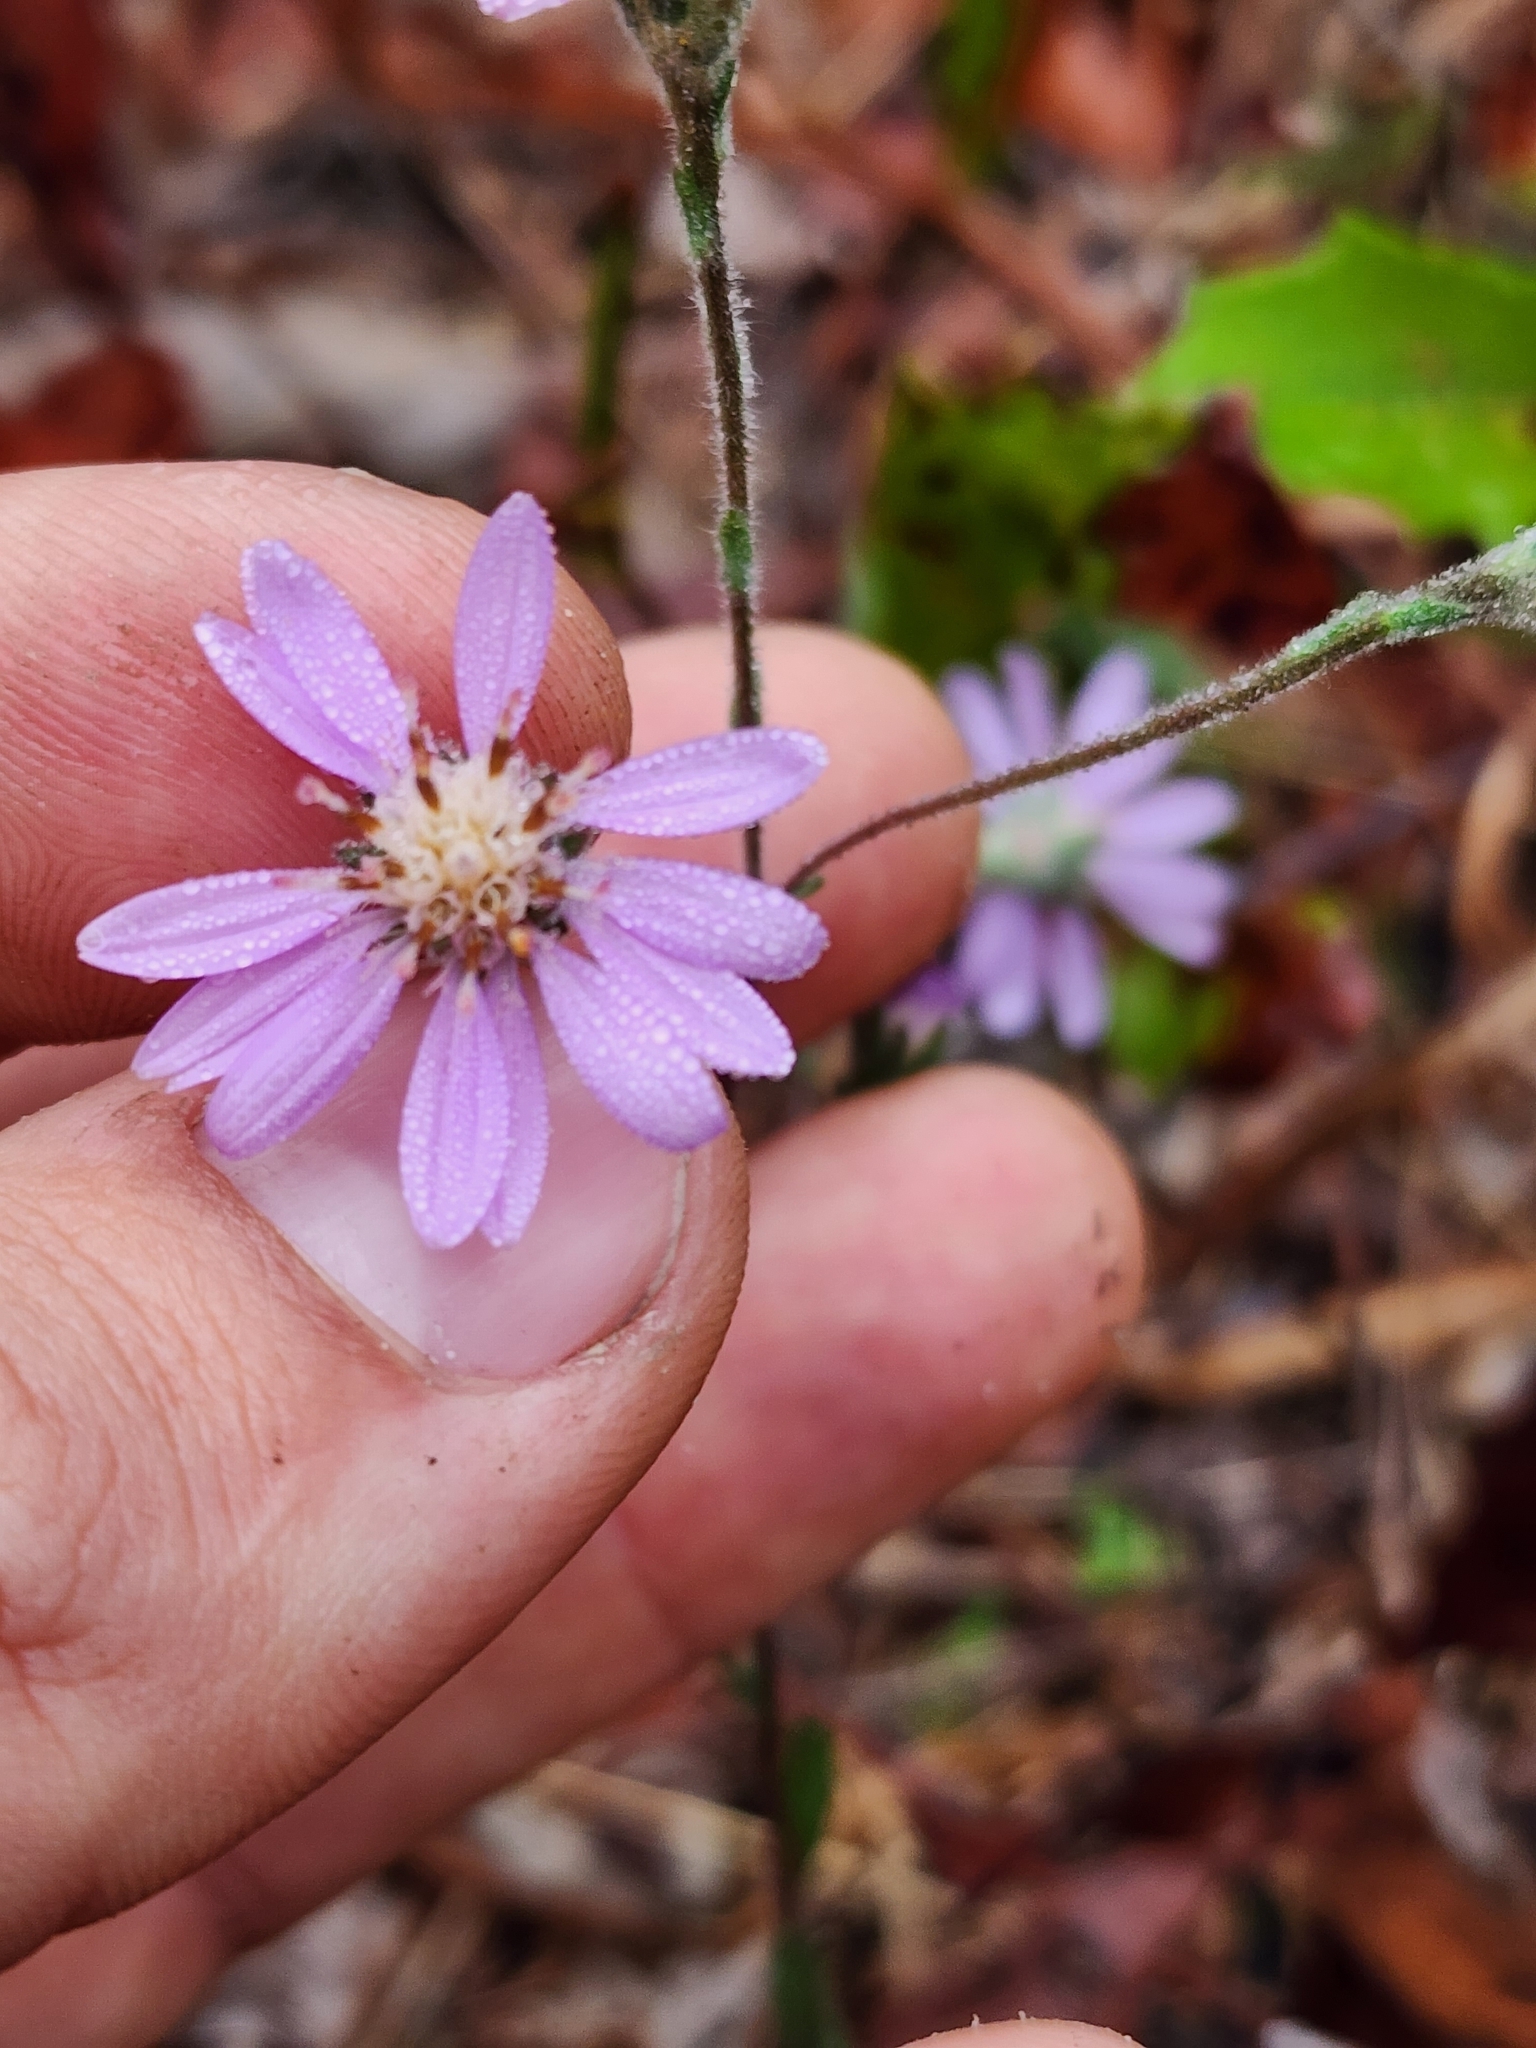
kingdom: Plantae
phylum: Tracheophyta
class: Magnoliopsida
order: Asterales
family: Asteraceae
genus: Symphyotrichum
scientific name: Symphyotrichum concolor
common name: Eastern silver aster
